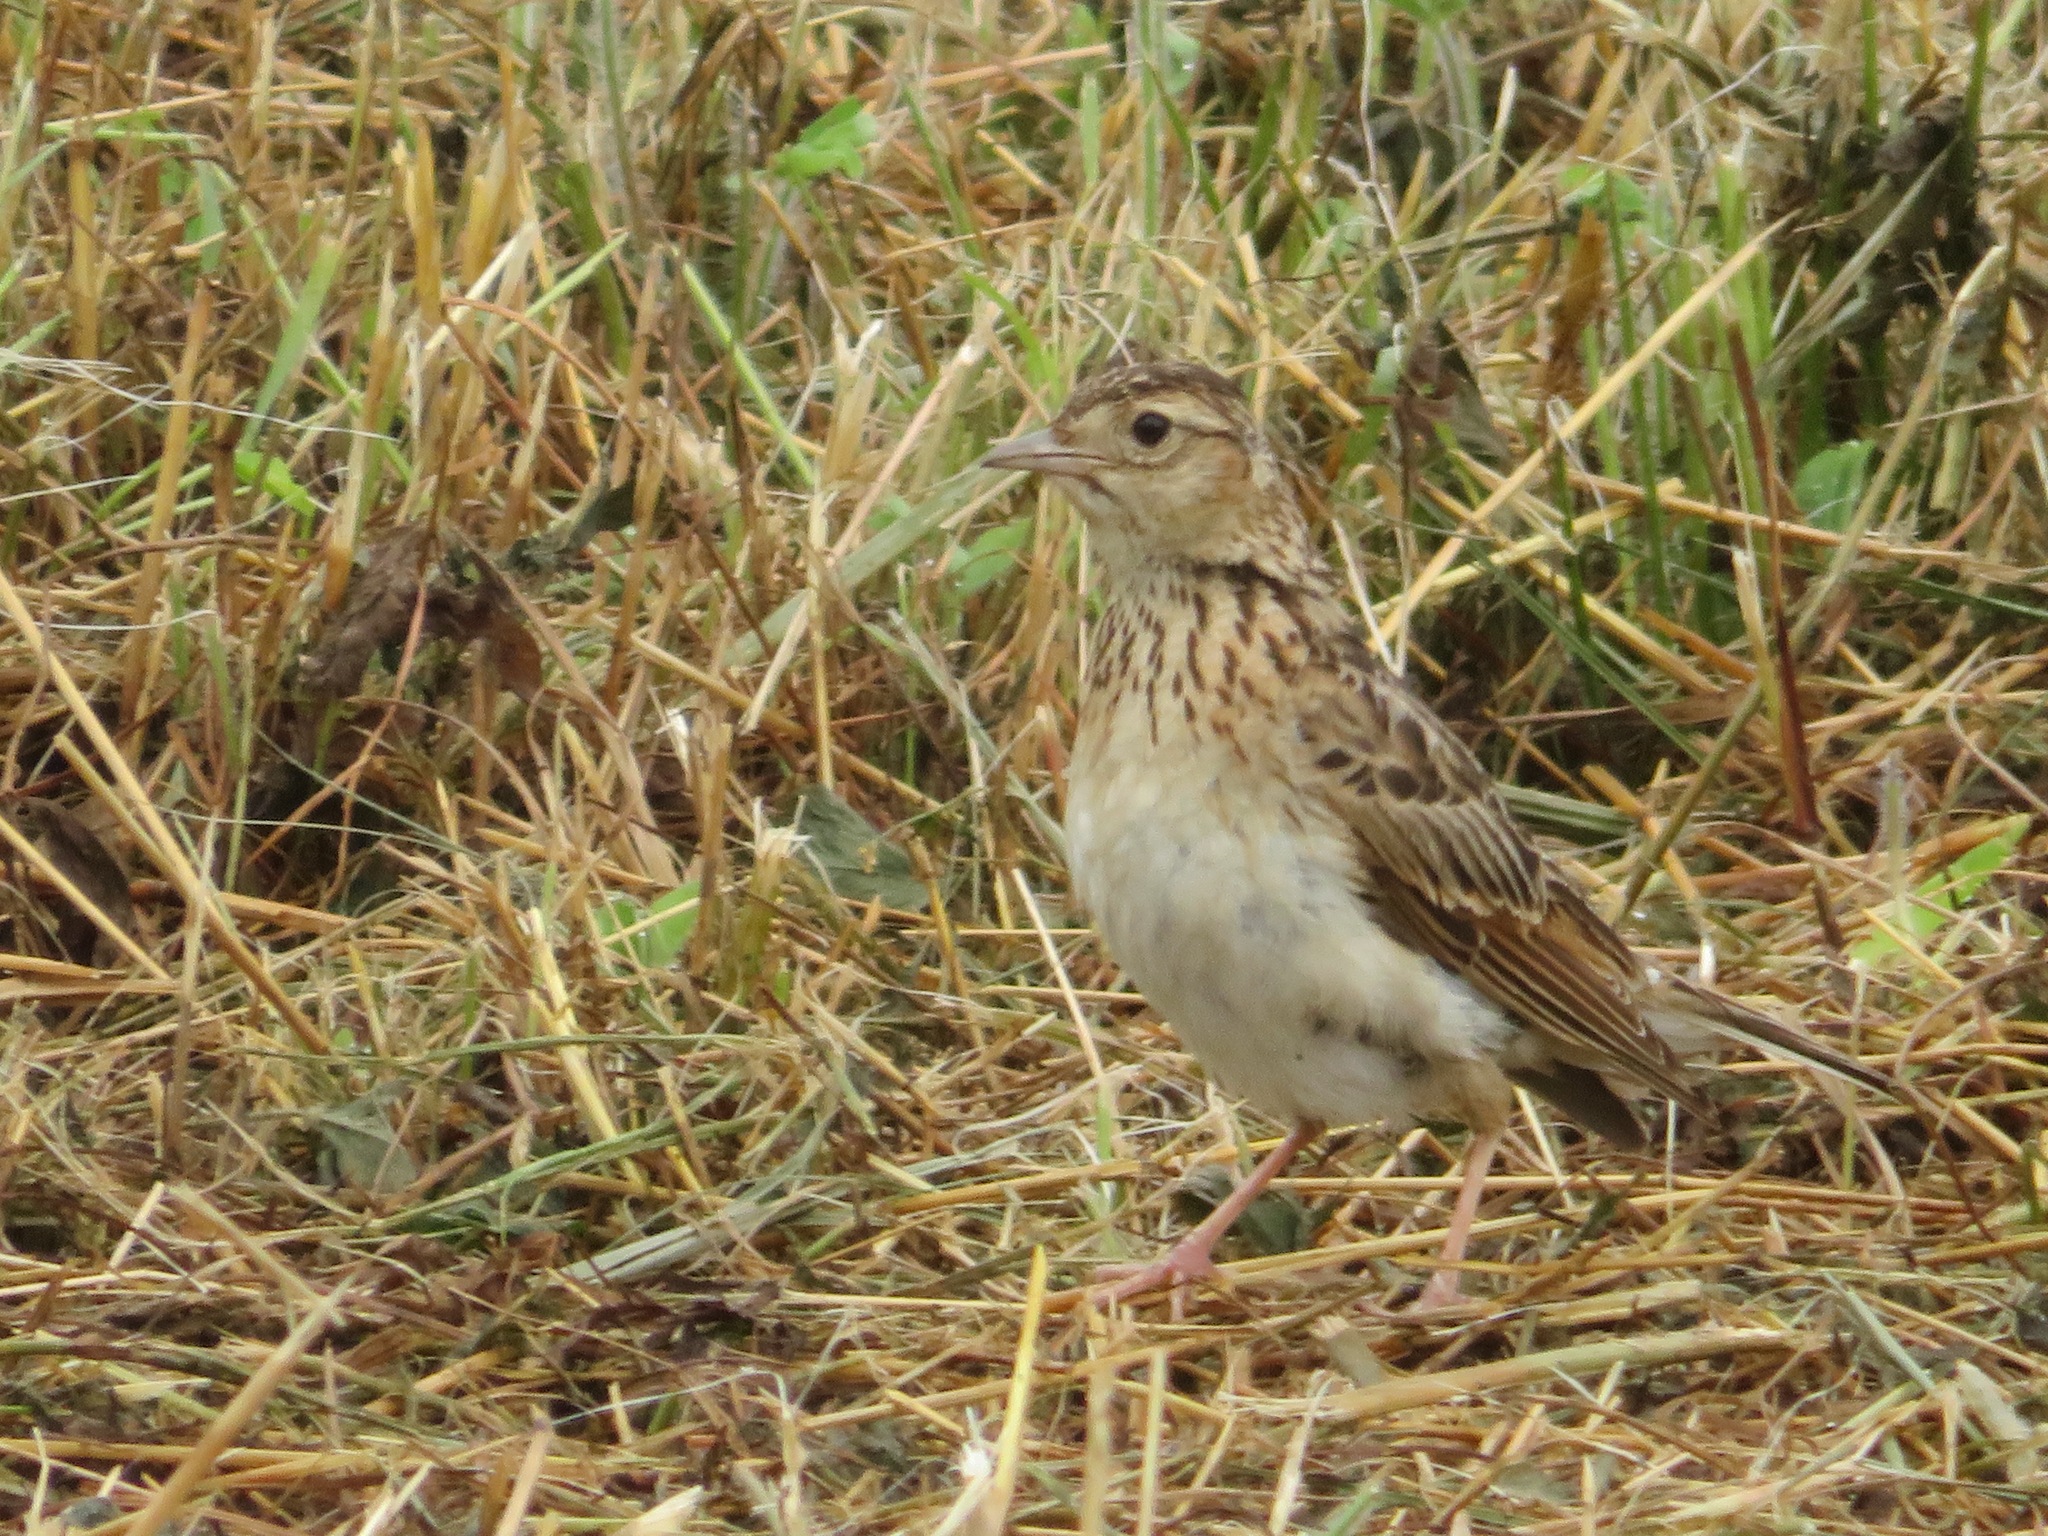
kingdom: Animalia
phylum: Chordata
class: Aves
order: Passeriformes
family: Alaudidae
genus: Alauda
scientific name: Alauda arvensis
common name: Eurasian skylark
